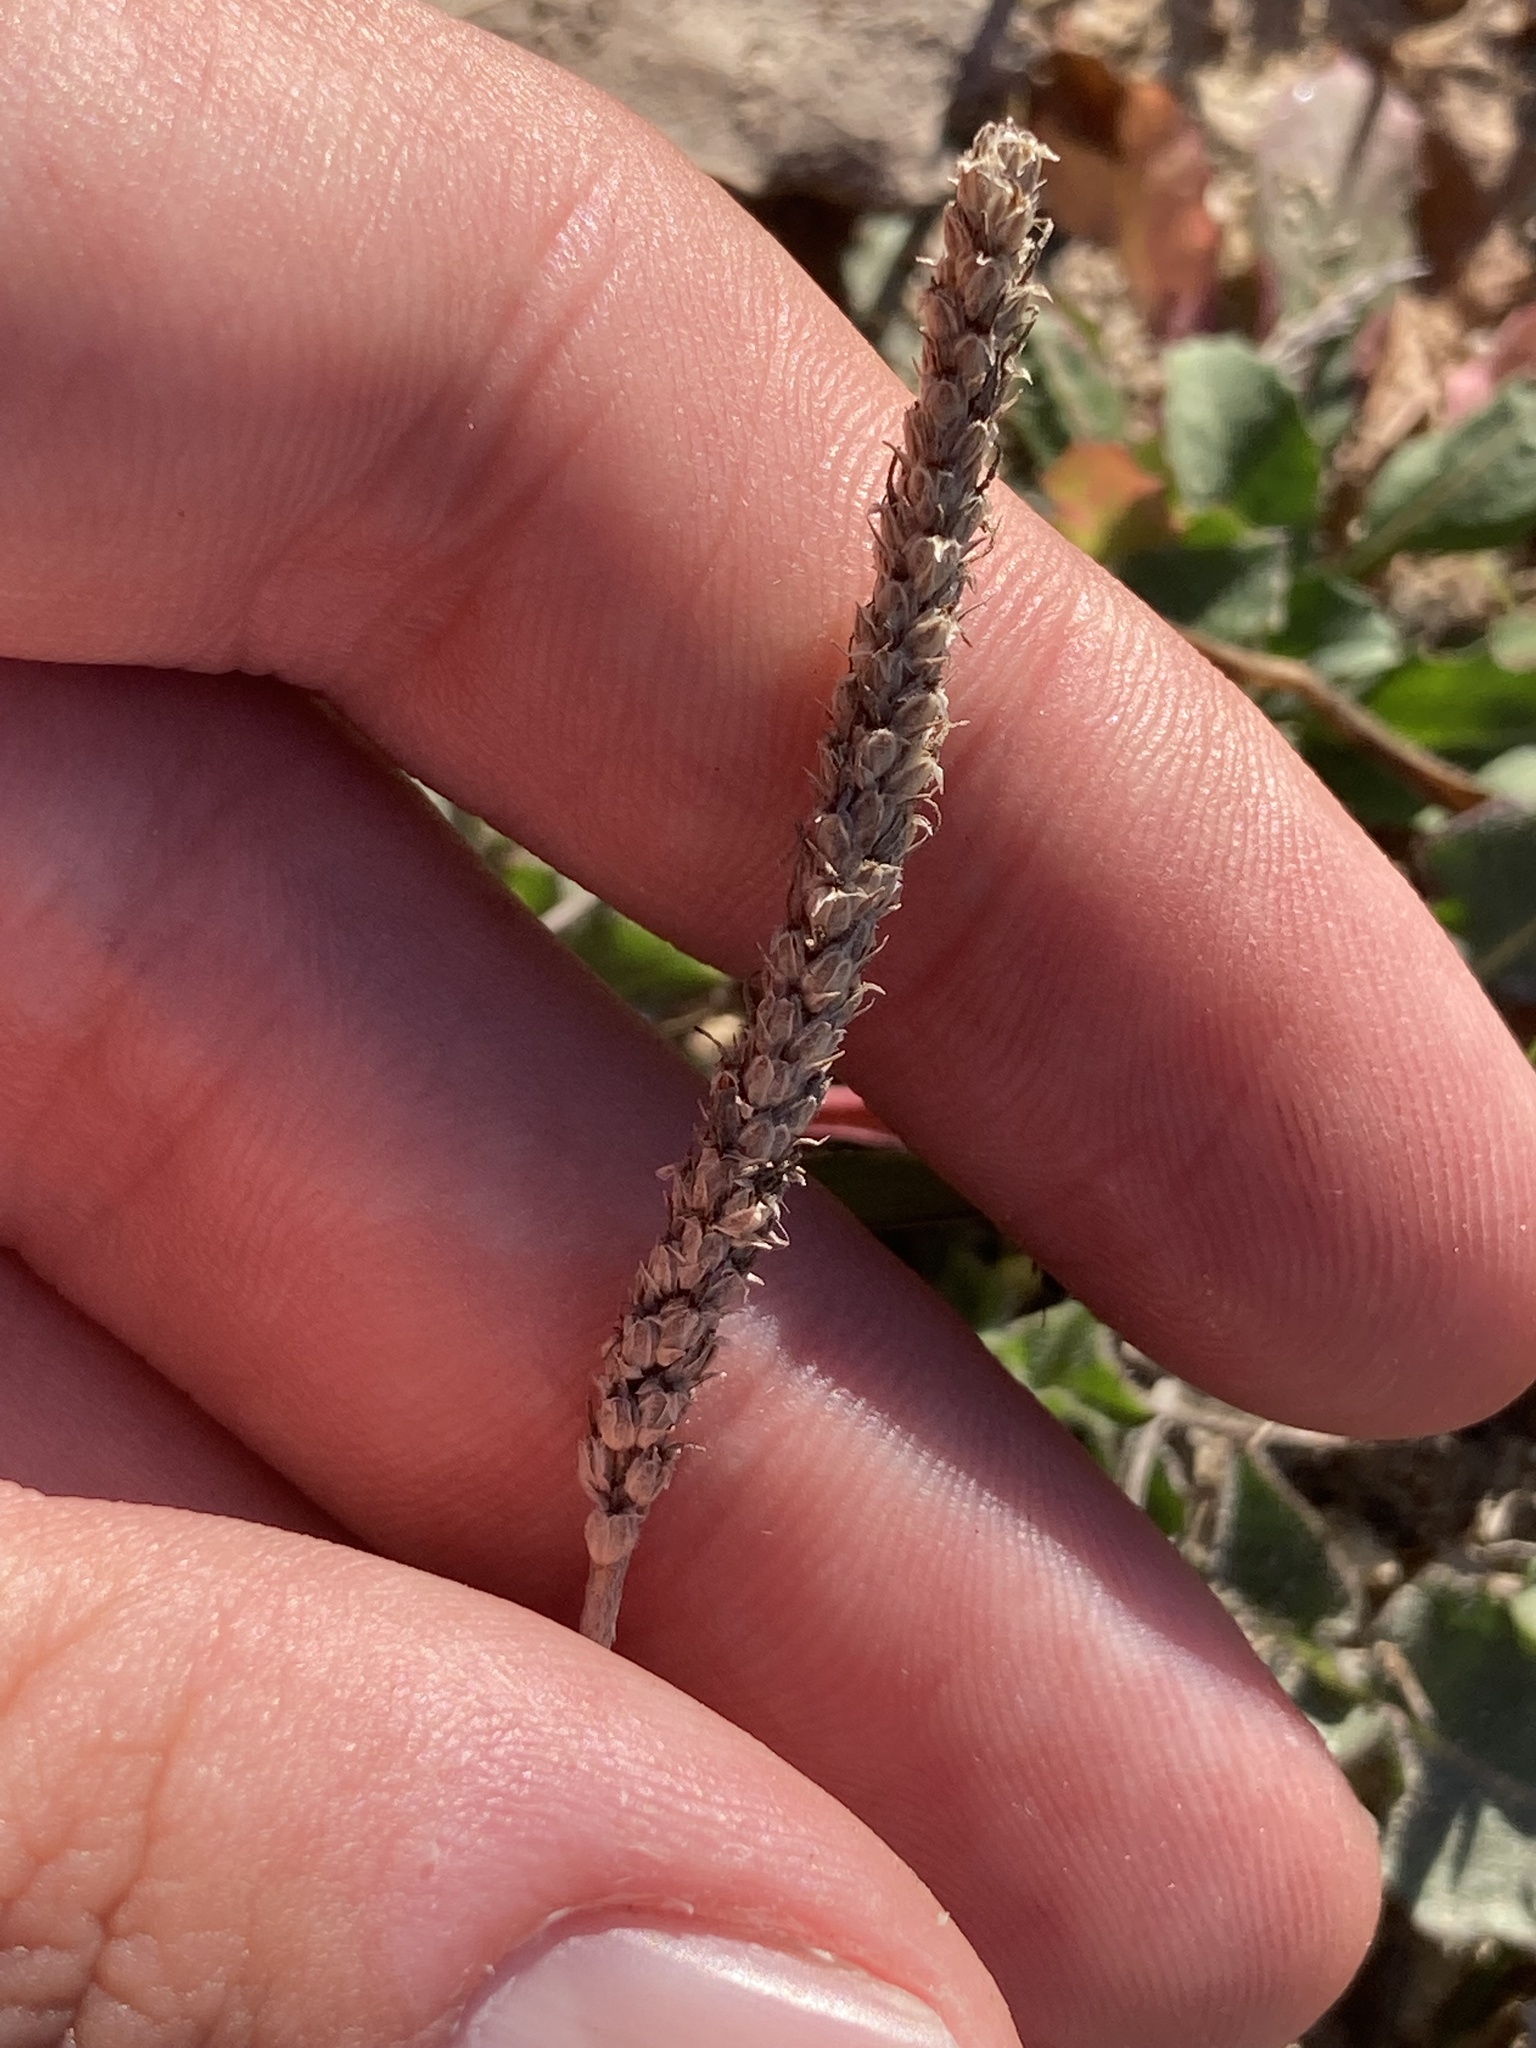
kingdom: Plantae
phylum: Tracheophyta
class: Magnoliopsida
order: Lamiales
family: Plantaginaceae
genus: Plantago
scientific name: Plantago coronopus
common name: Buck's-horn plantain
